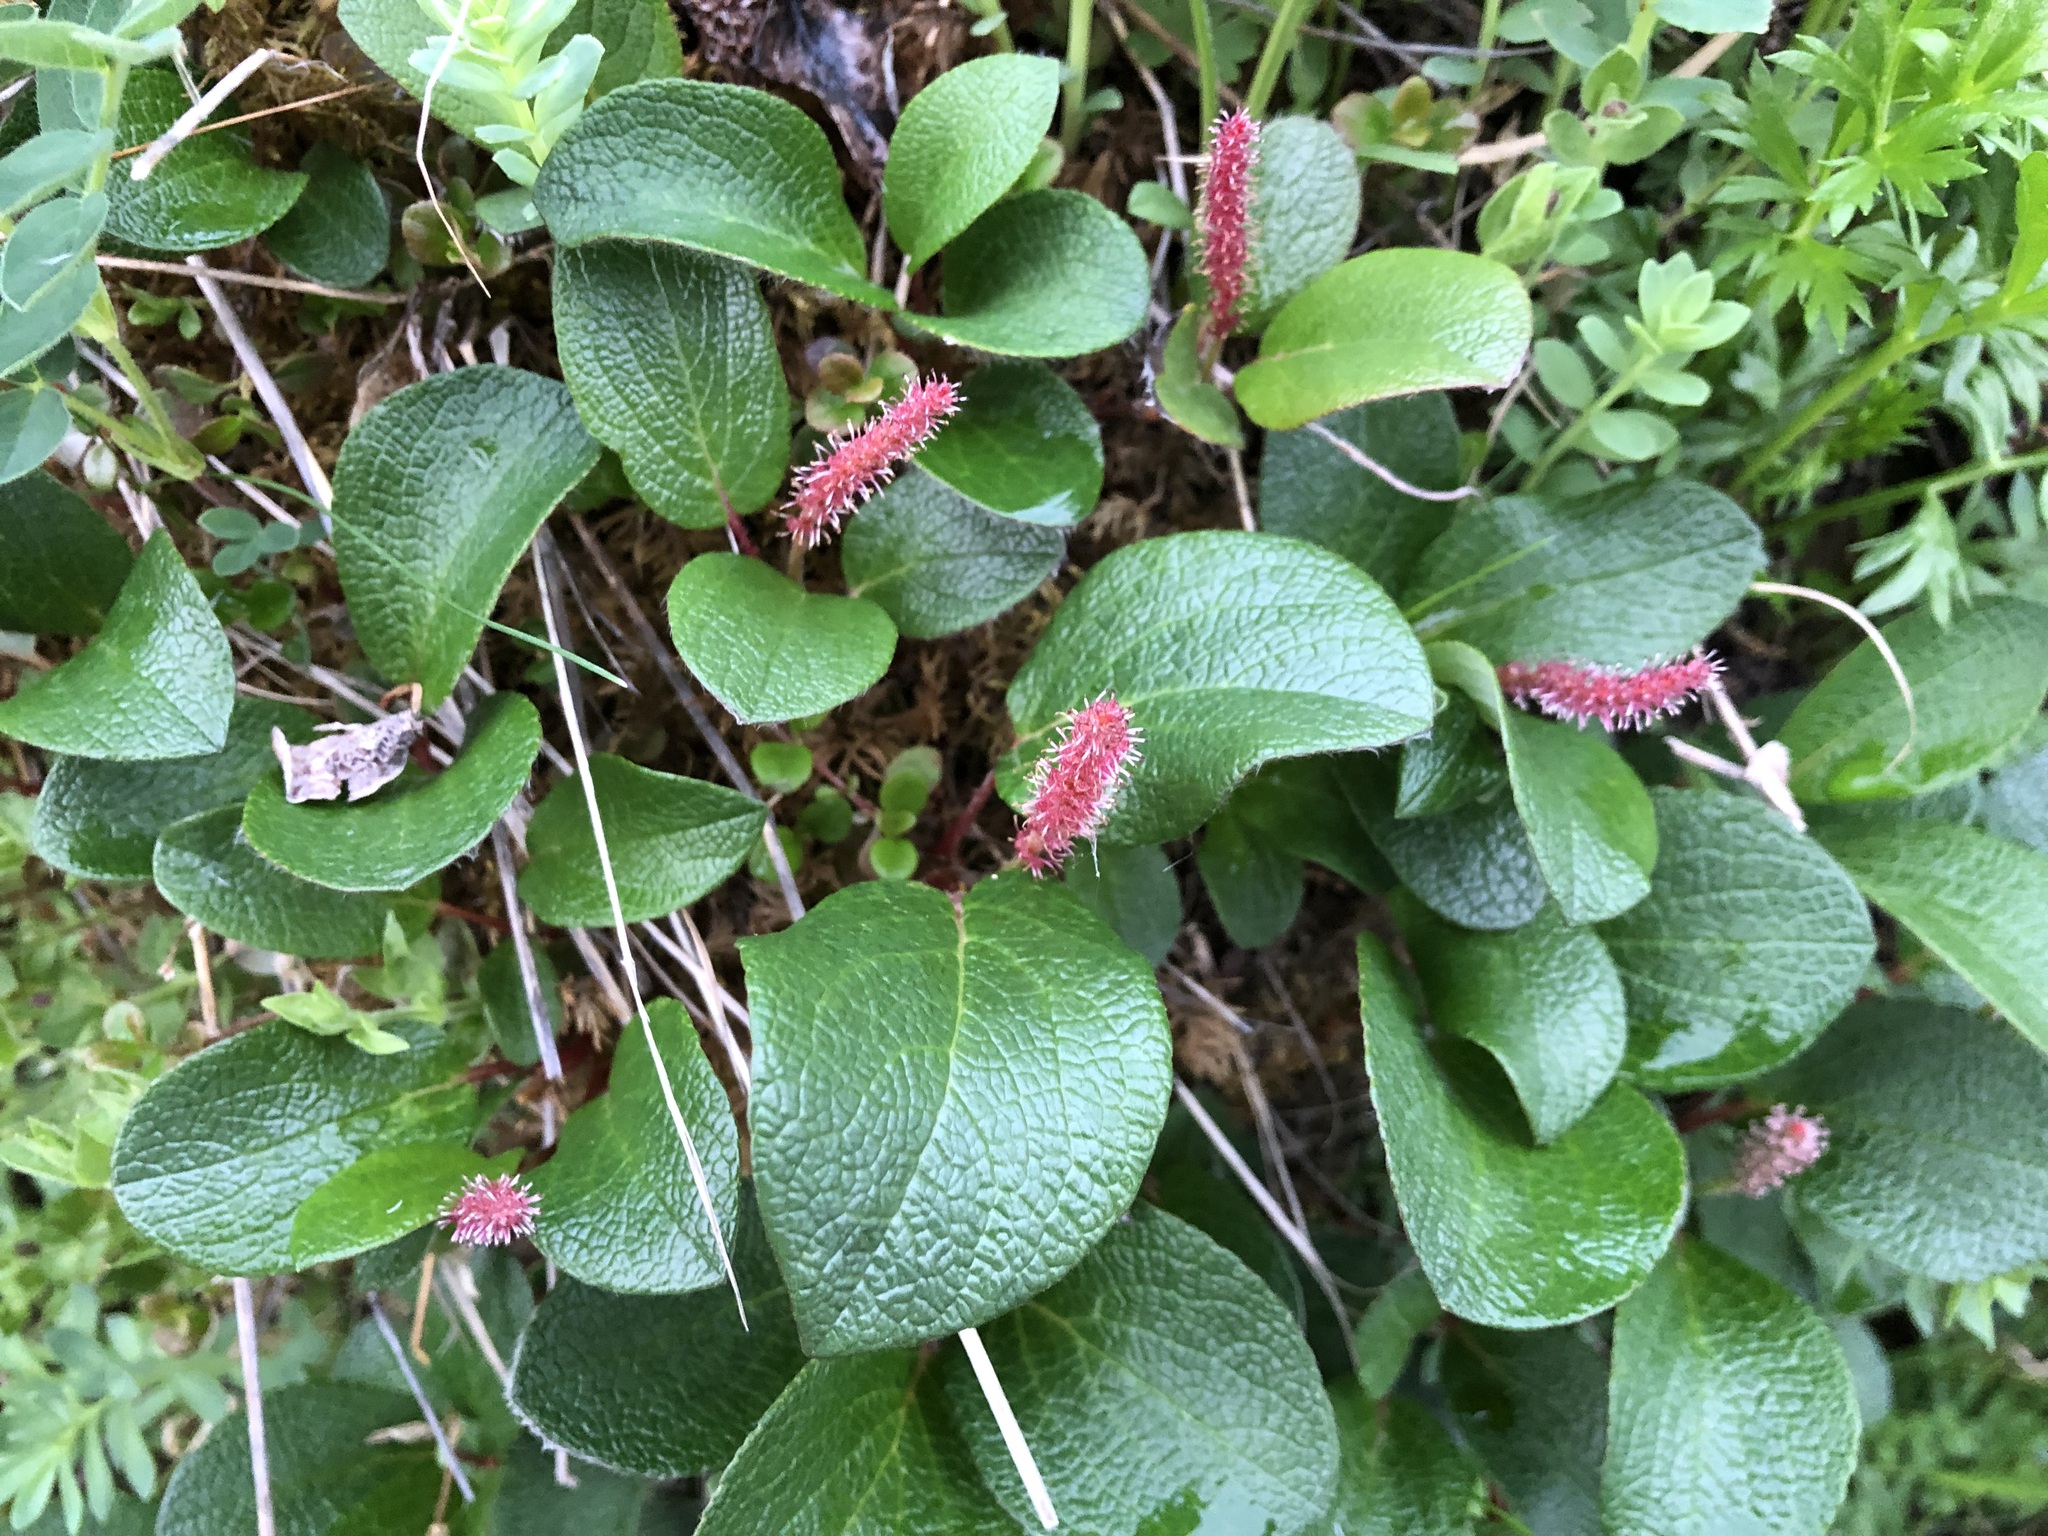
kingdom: Plantae
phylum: Tracheophyta
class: Magnoliopsida
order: Malpighiales
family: Salicaceae
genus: Salix
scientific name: Salix reticulata
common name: Net-leaved willow
